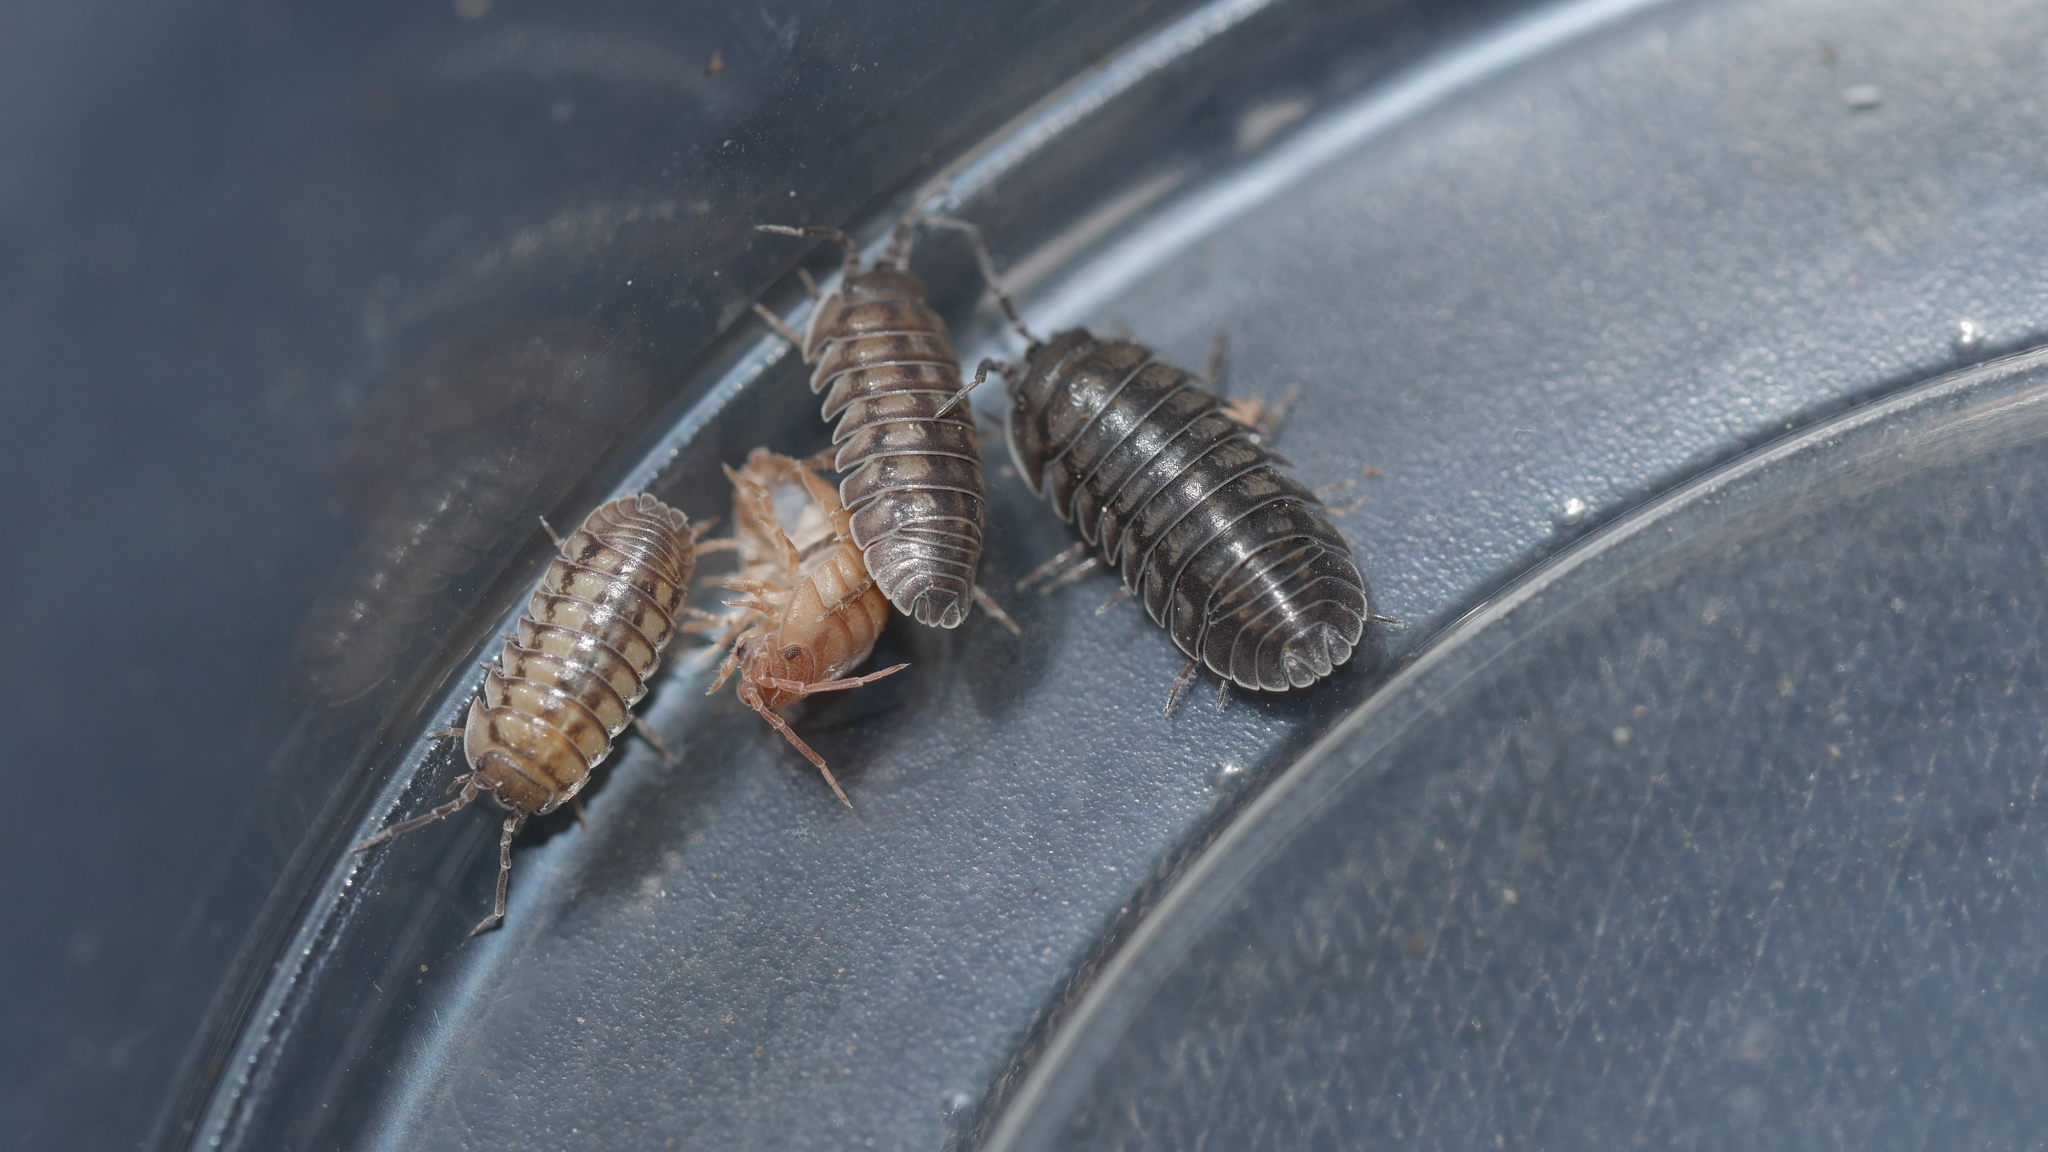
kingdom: Animalia
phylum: Arthropoda
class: Malacostraca
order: Isopoda
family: Armadillidiidae
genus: Armadillidium
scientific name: Armadillidium nasatum
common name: Isopod
